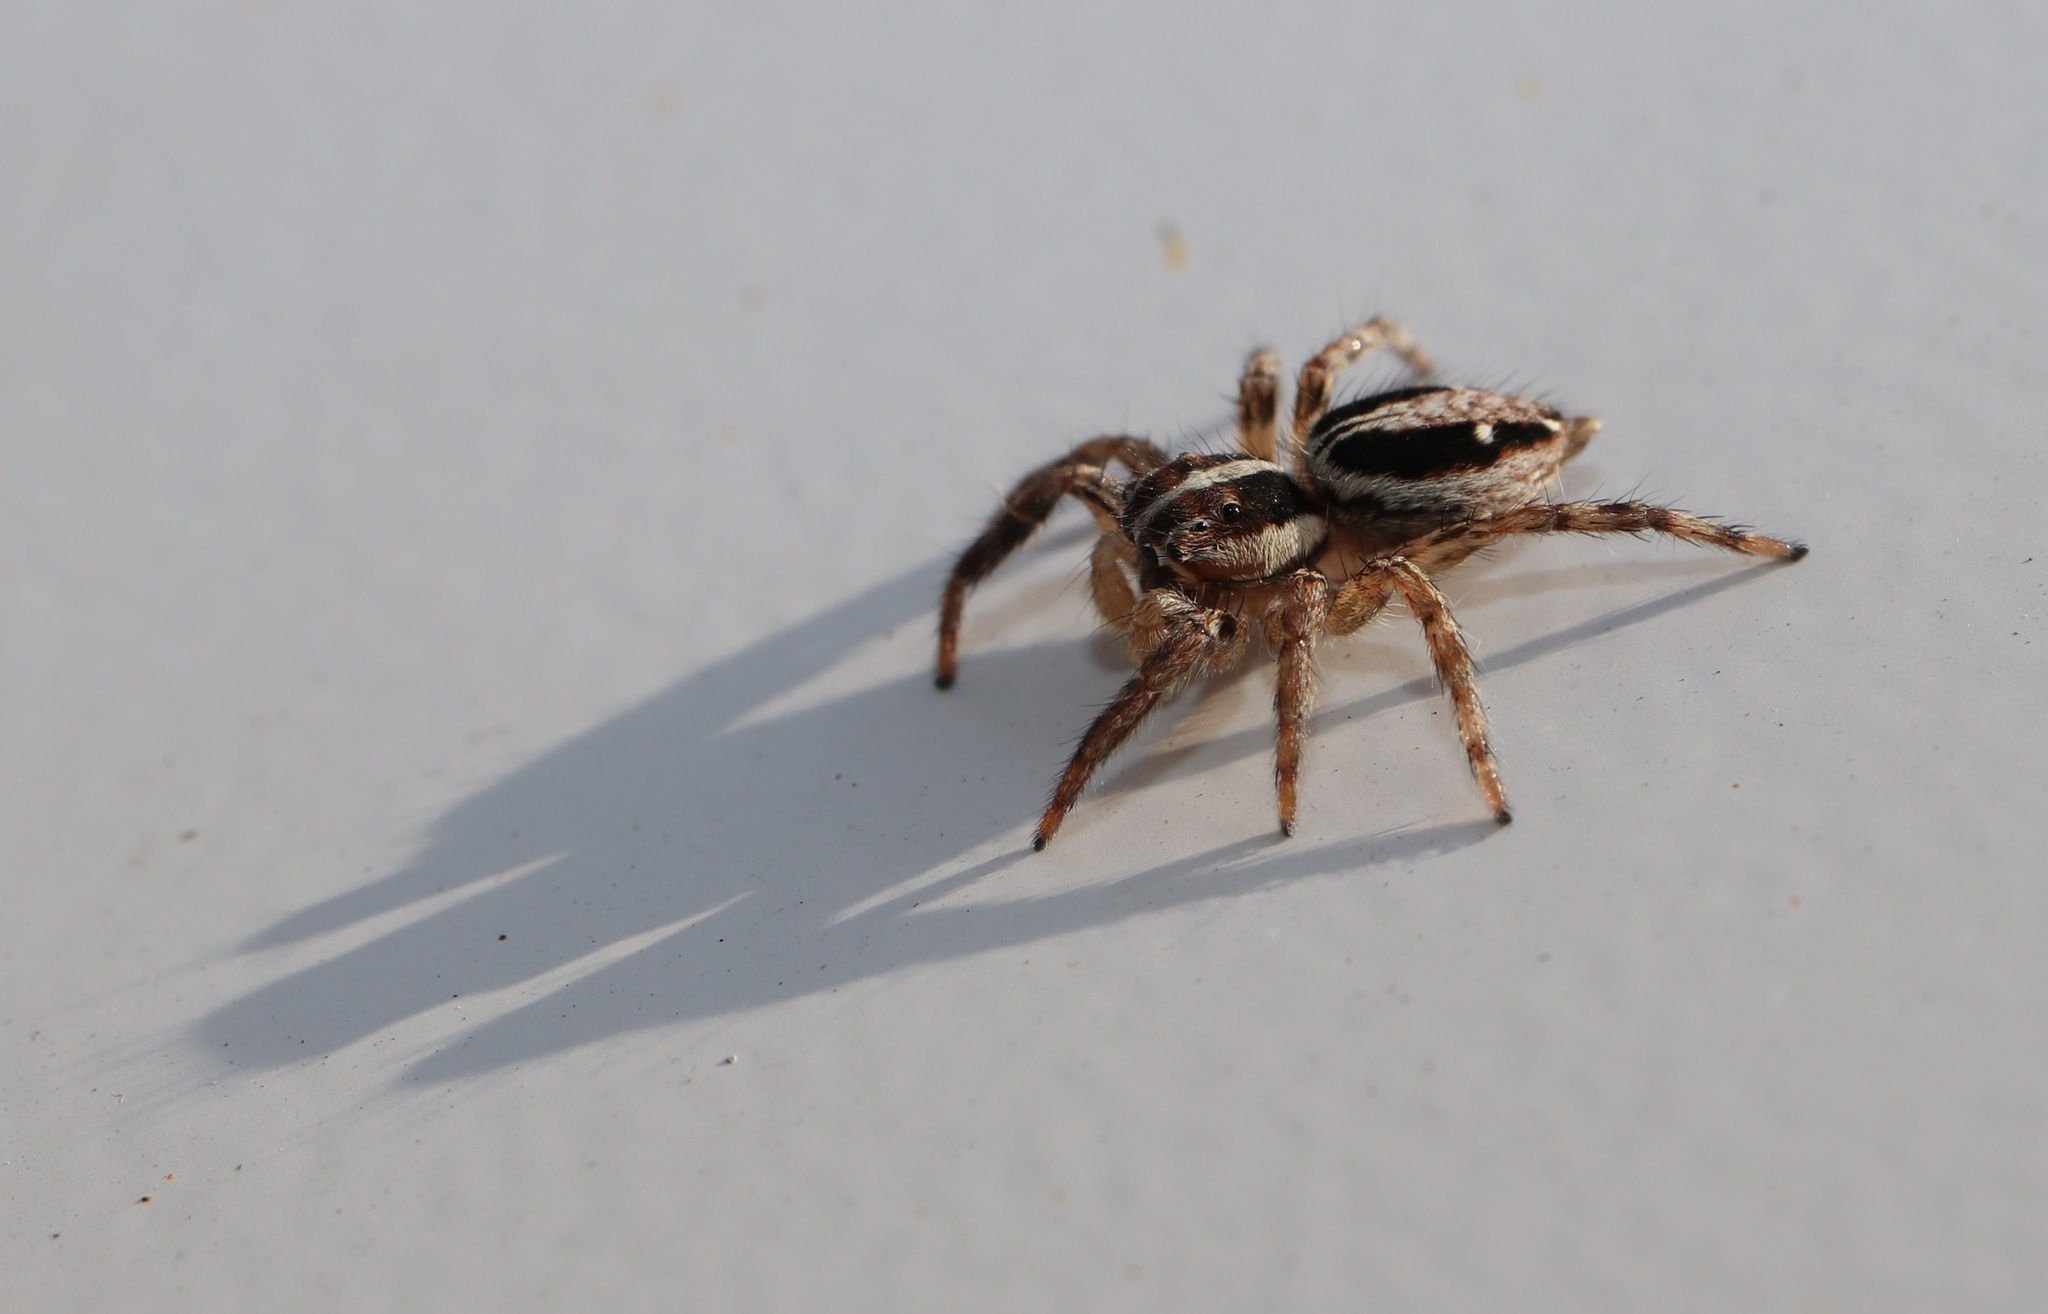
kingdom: Animalia
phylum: Arthropoda
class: Arachnida
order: Araneae
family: Salticidae
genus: Plexippus
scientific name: Plexippus paykulli
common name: Pantropical jumper
